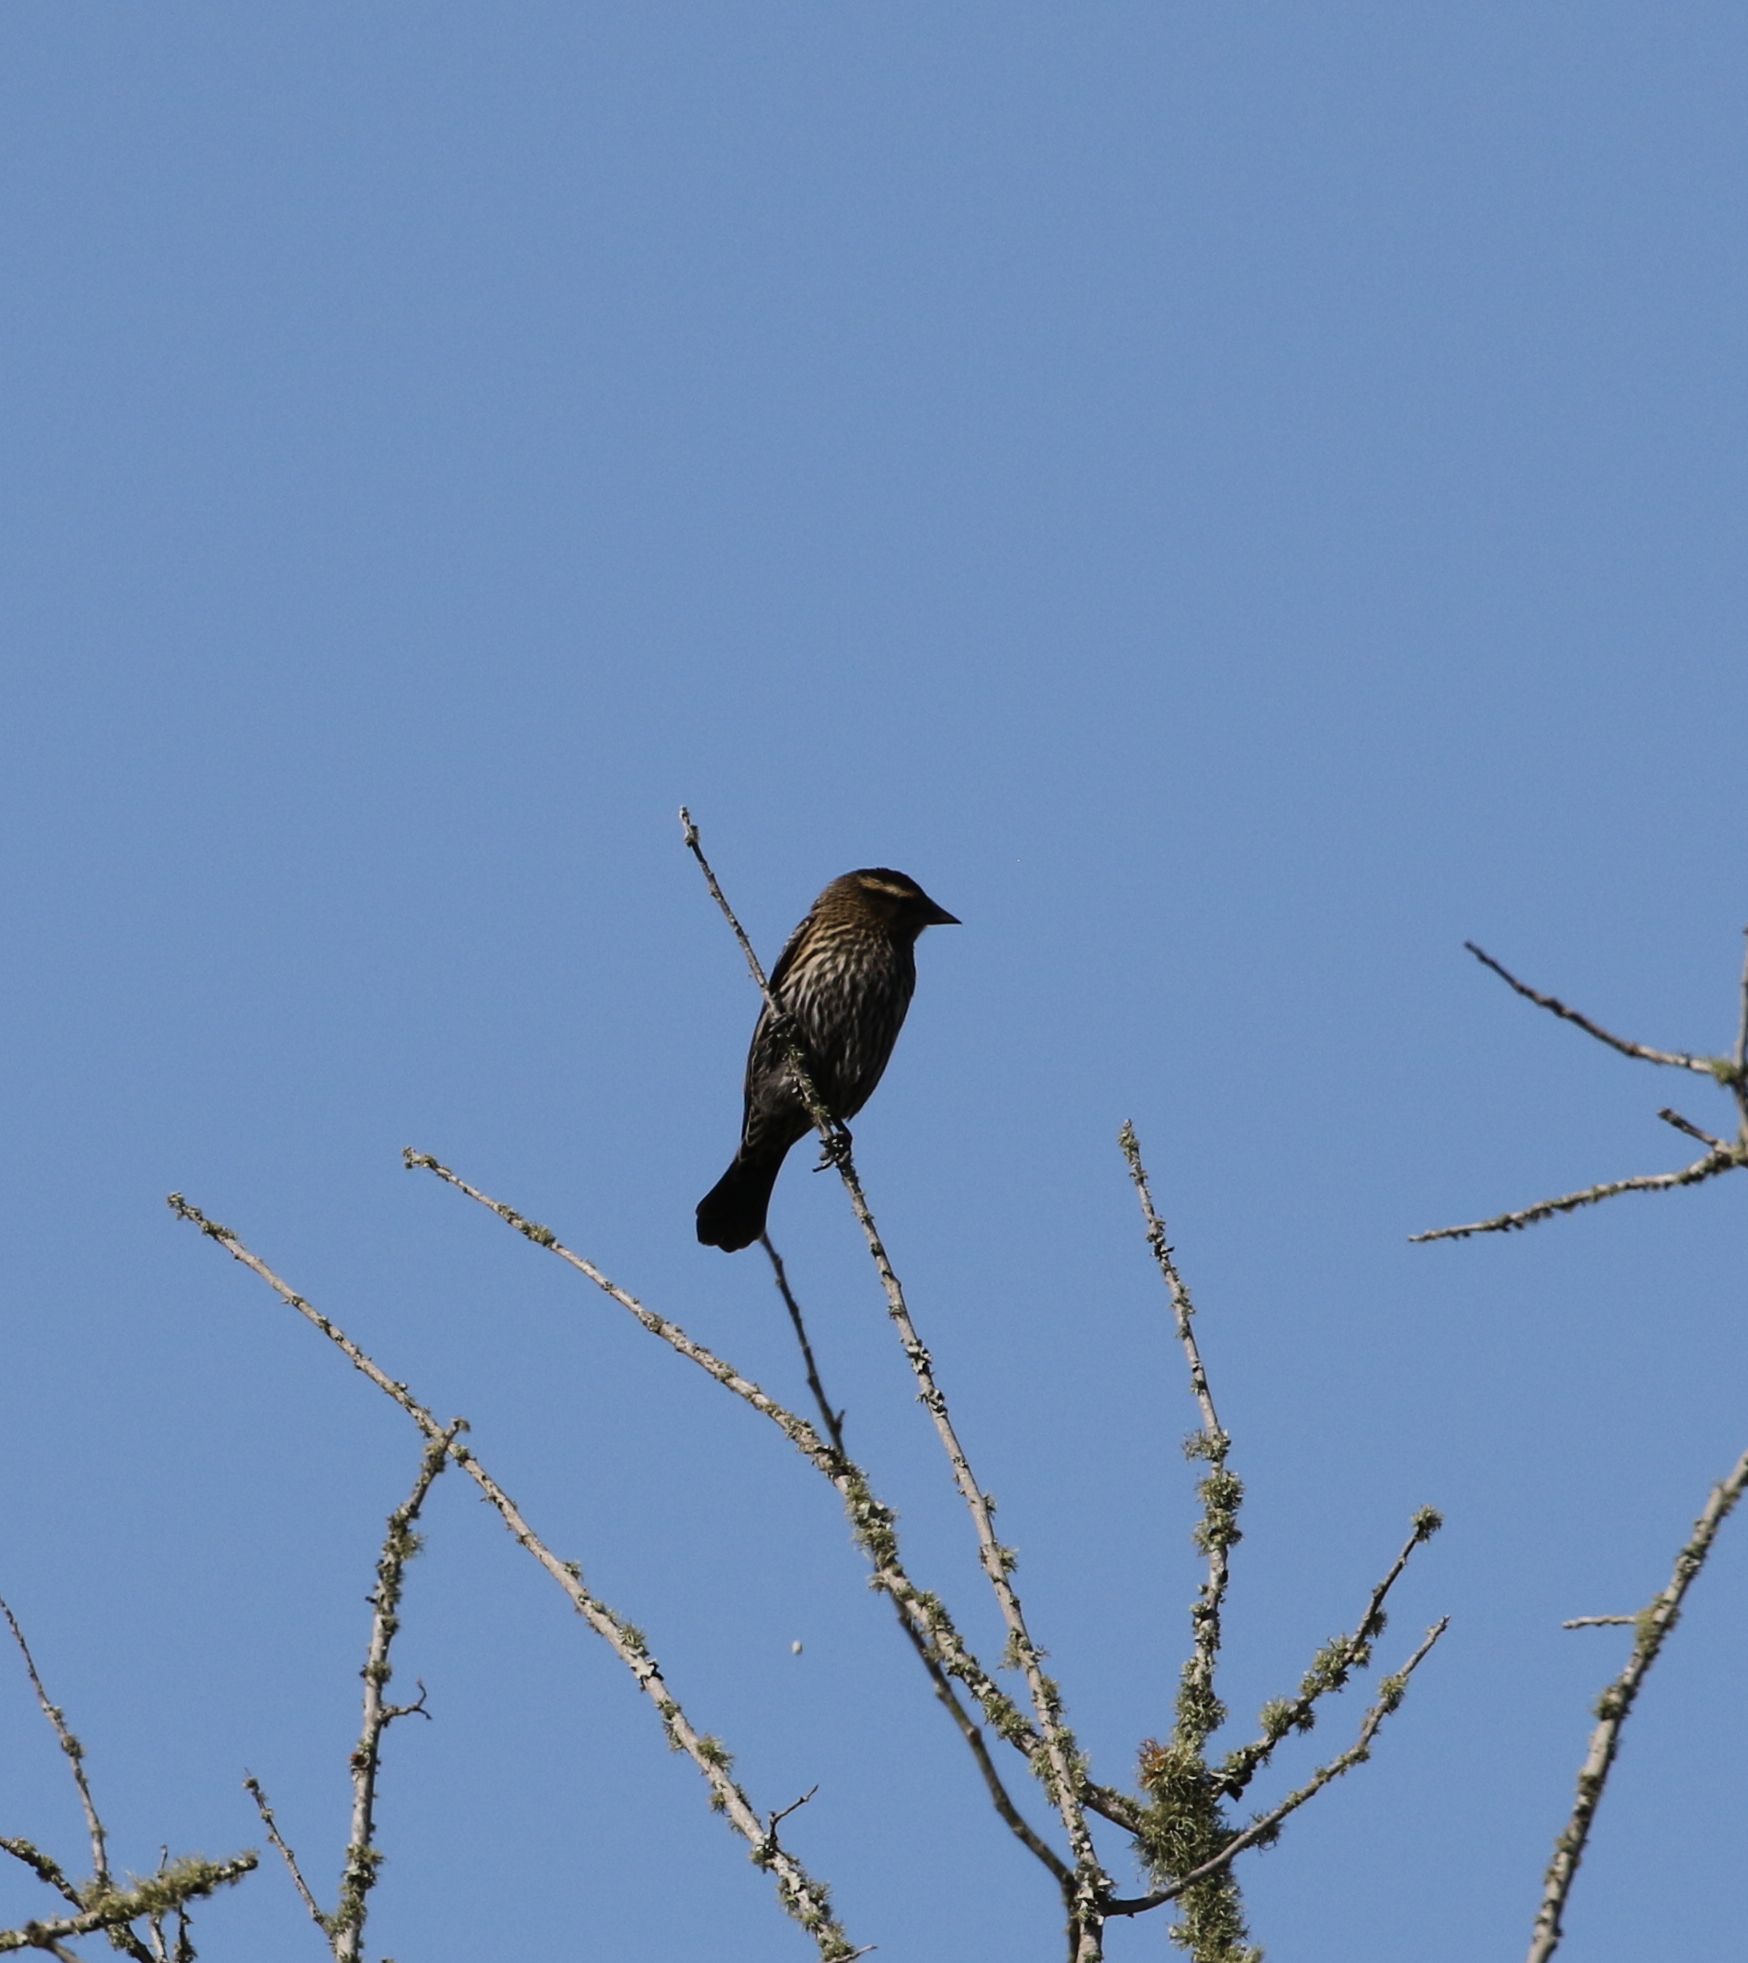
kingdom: Animalia
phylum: Chordata
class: Aves
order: Passeriformes
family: Icteridae
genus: Agelaius
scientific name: Agelaius phoeniceus
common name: Red-winged blackbird
